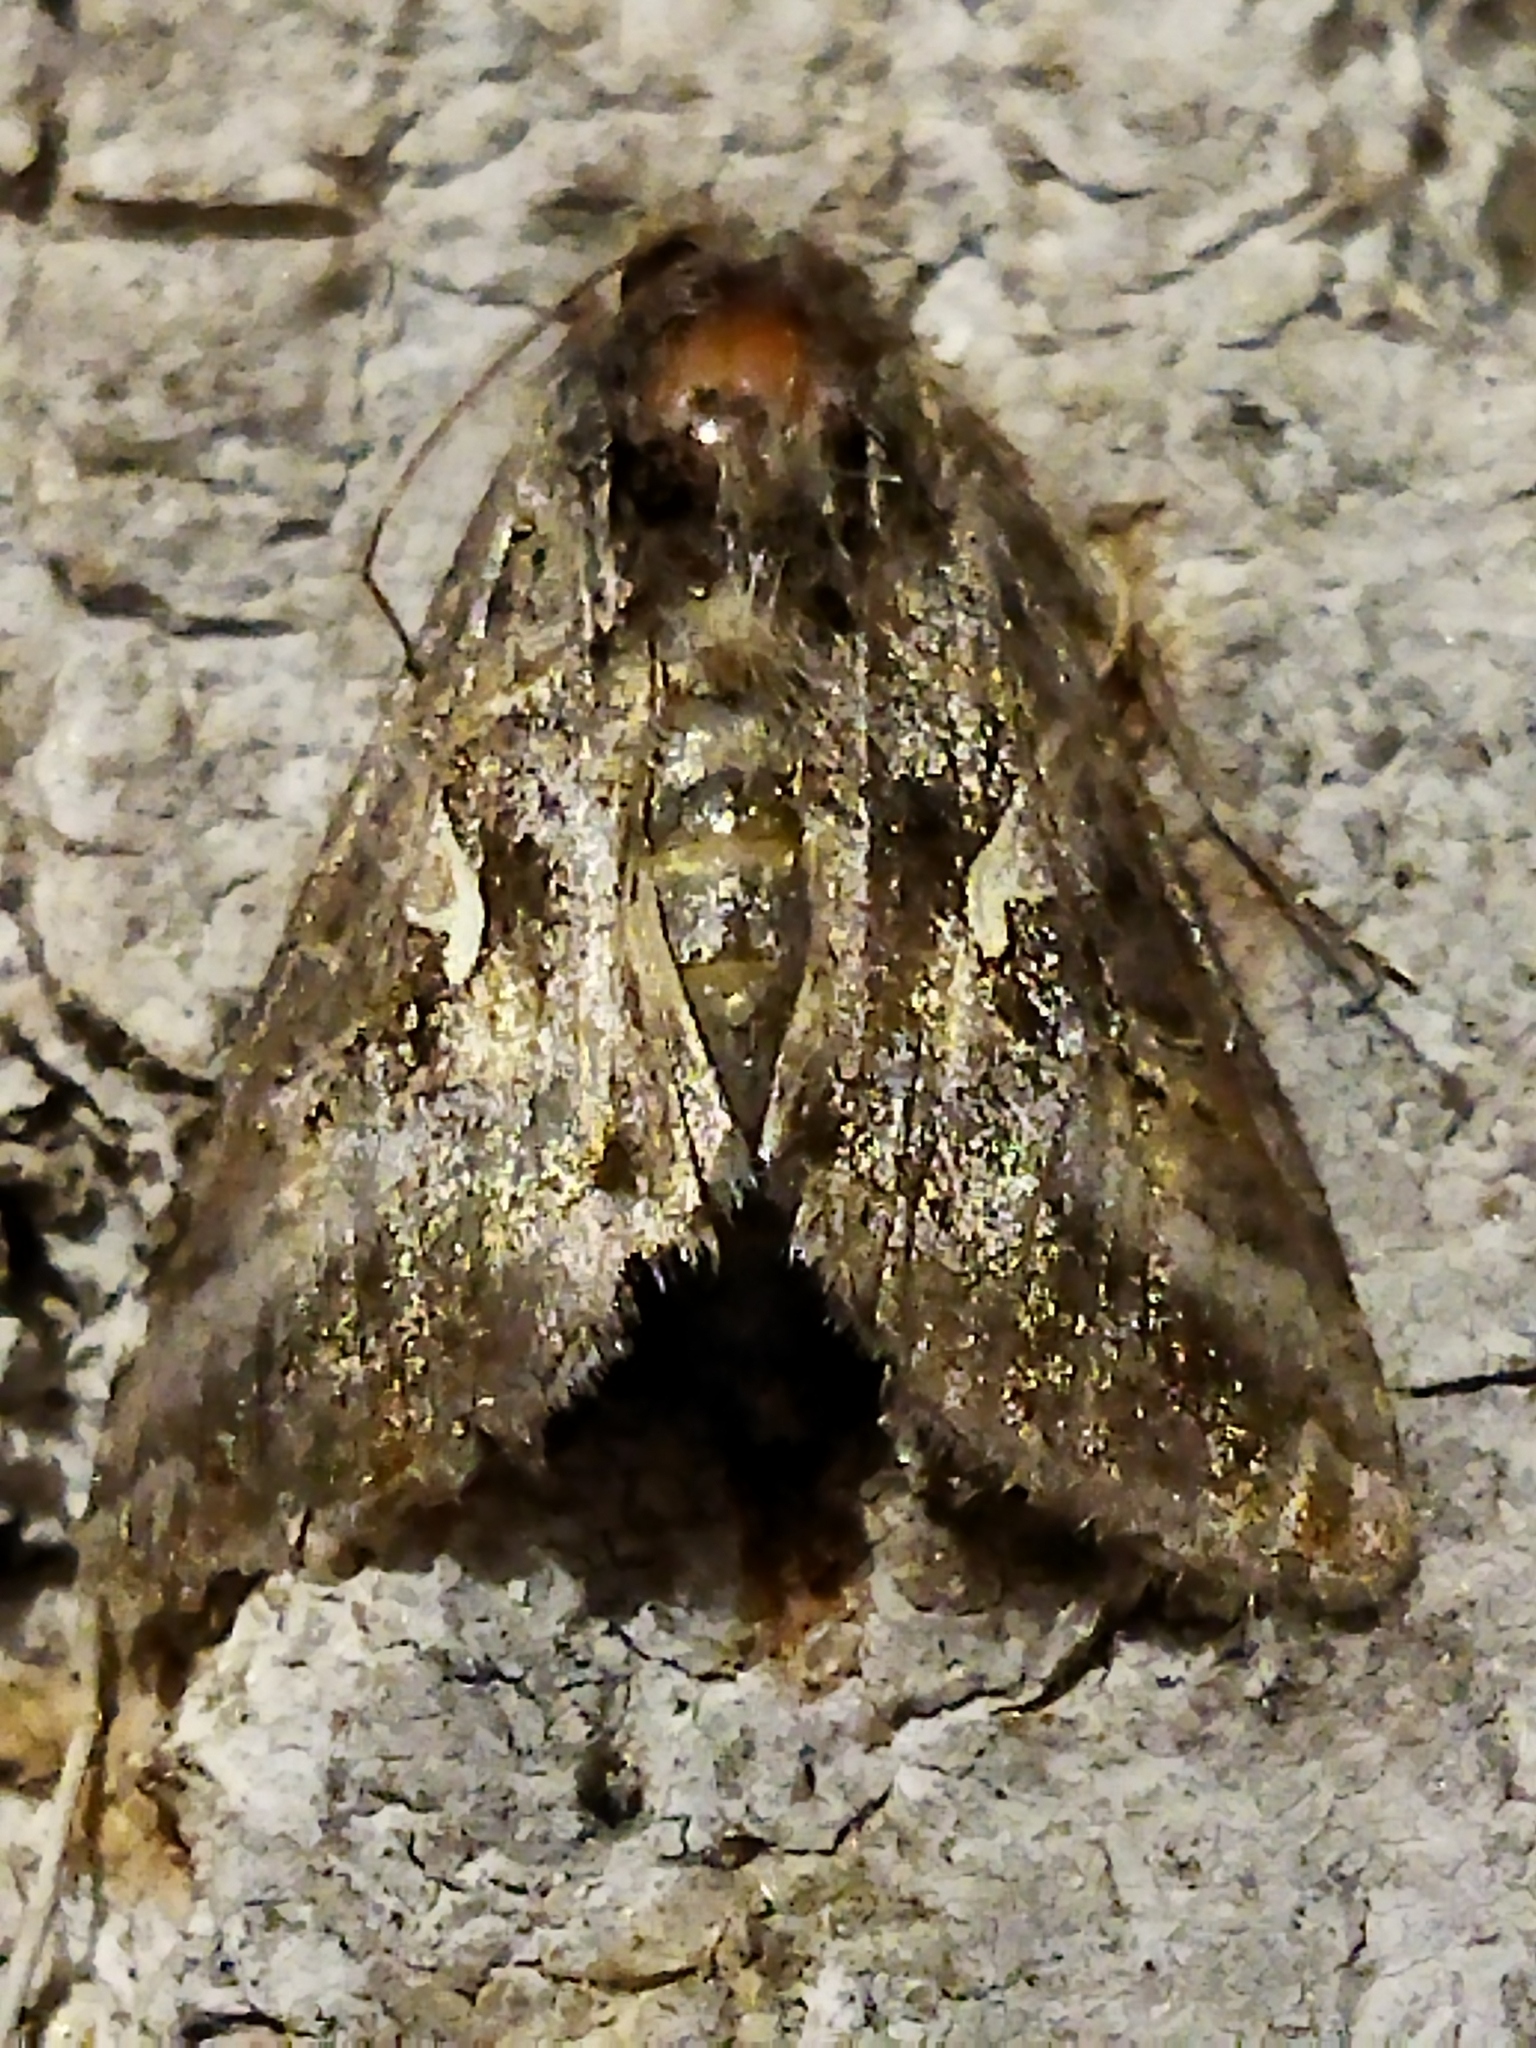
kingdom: Animalia
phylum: Arthropoda
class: Insecta
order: Lepidoptera
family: Noctuidae
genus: Autographa
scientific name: Autographa gamma
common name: Silver y
